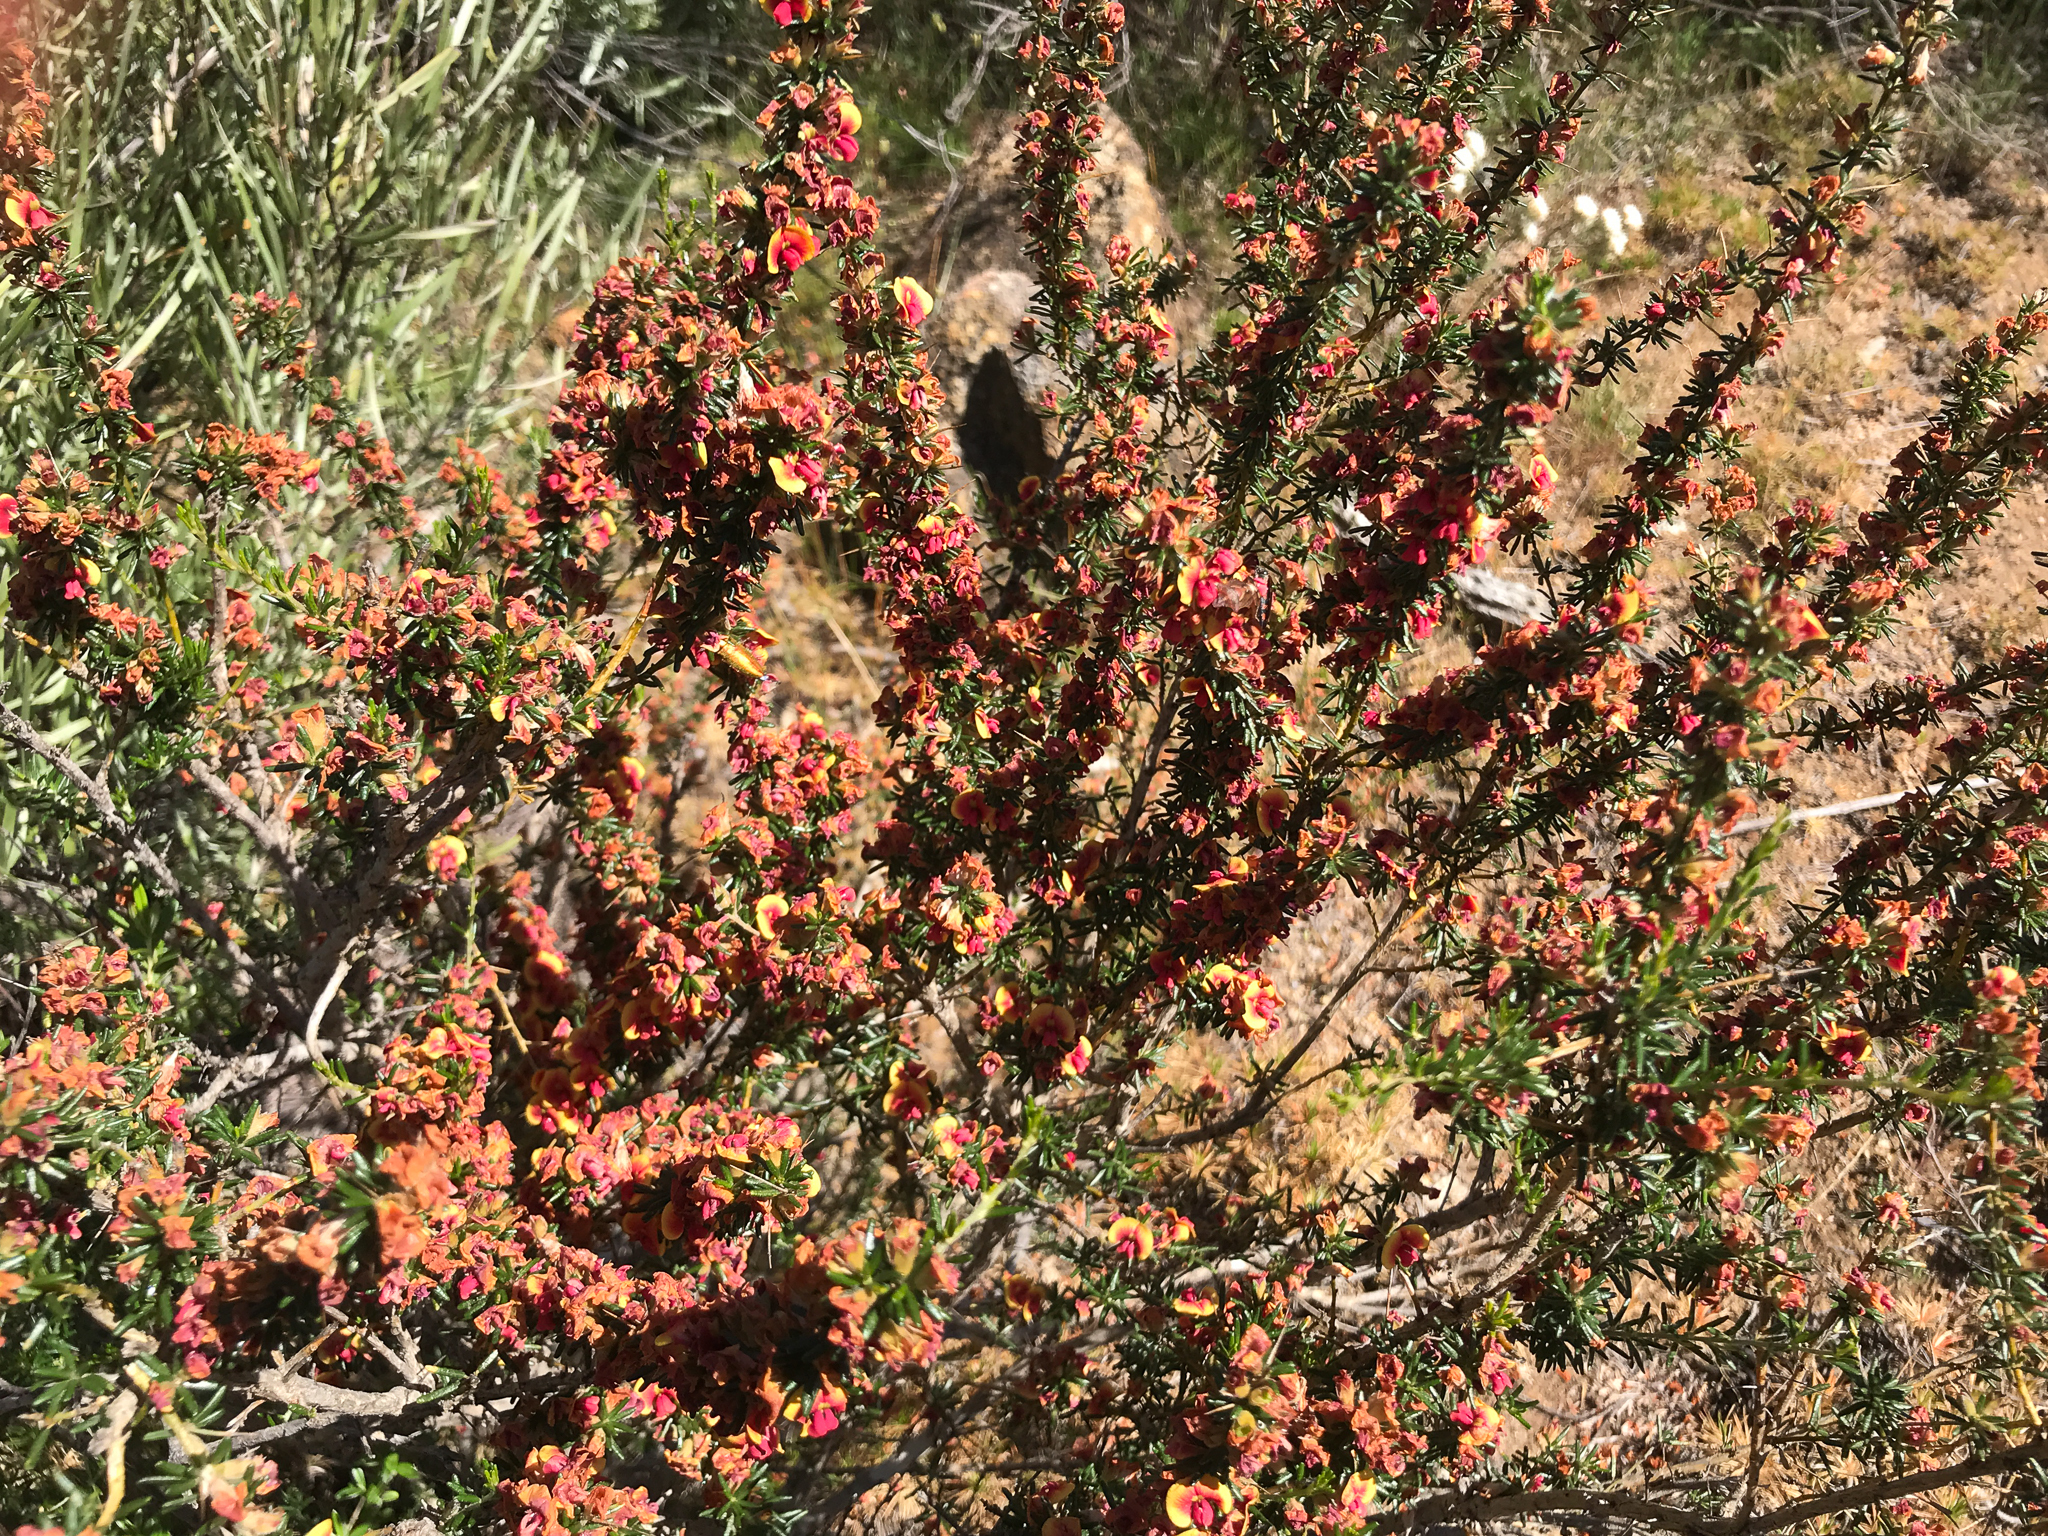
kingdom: Plantae
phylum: Tracheophyta
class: Magnoliopsida
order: Fabales
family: Fabaceae
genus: Mirbelia
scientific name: Mirbelia trichocalyx
